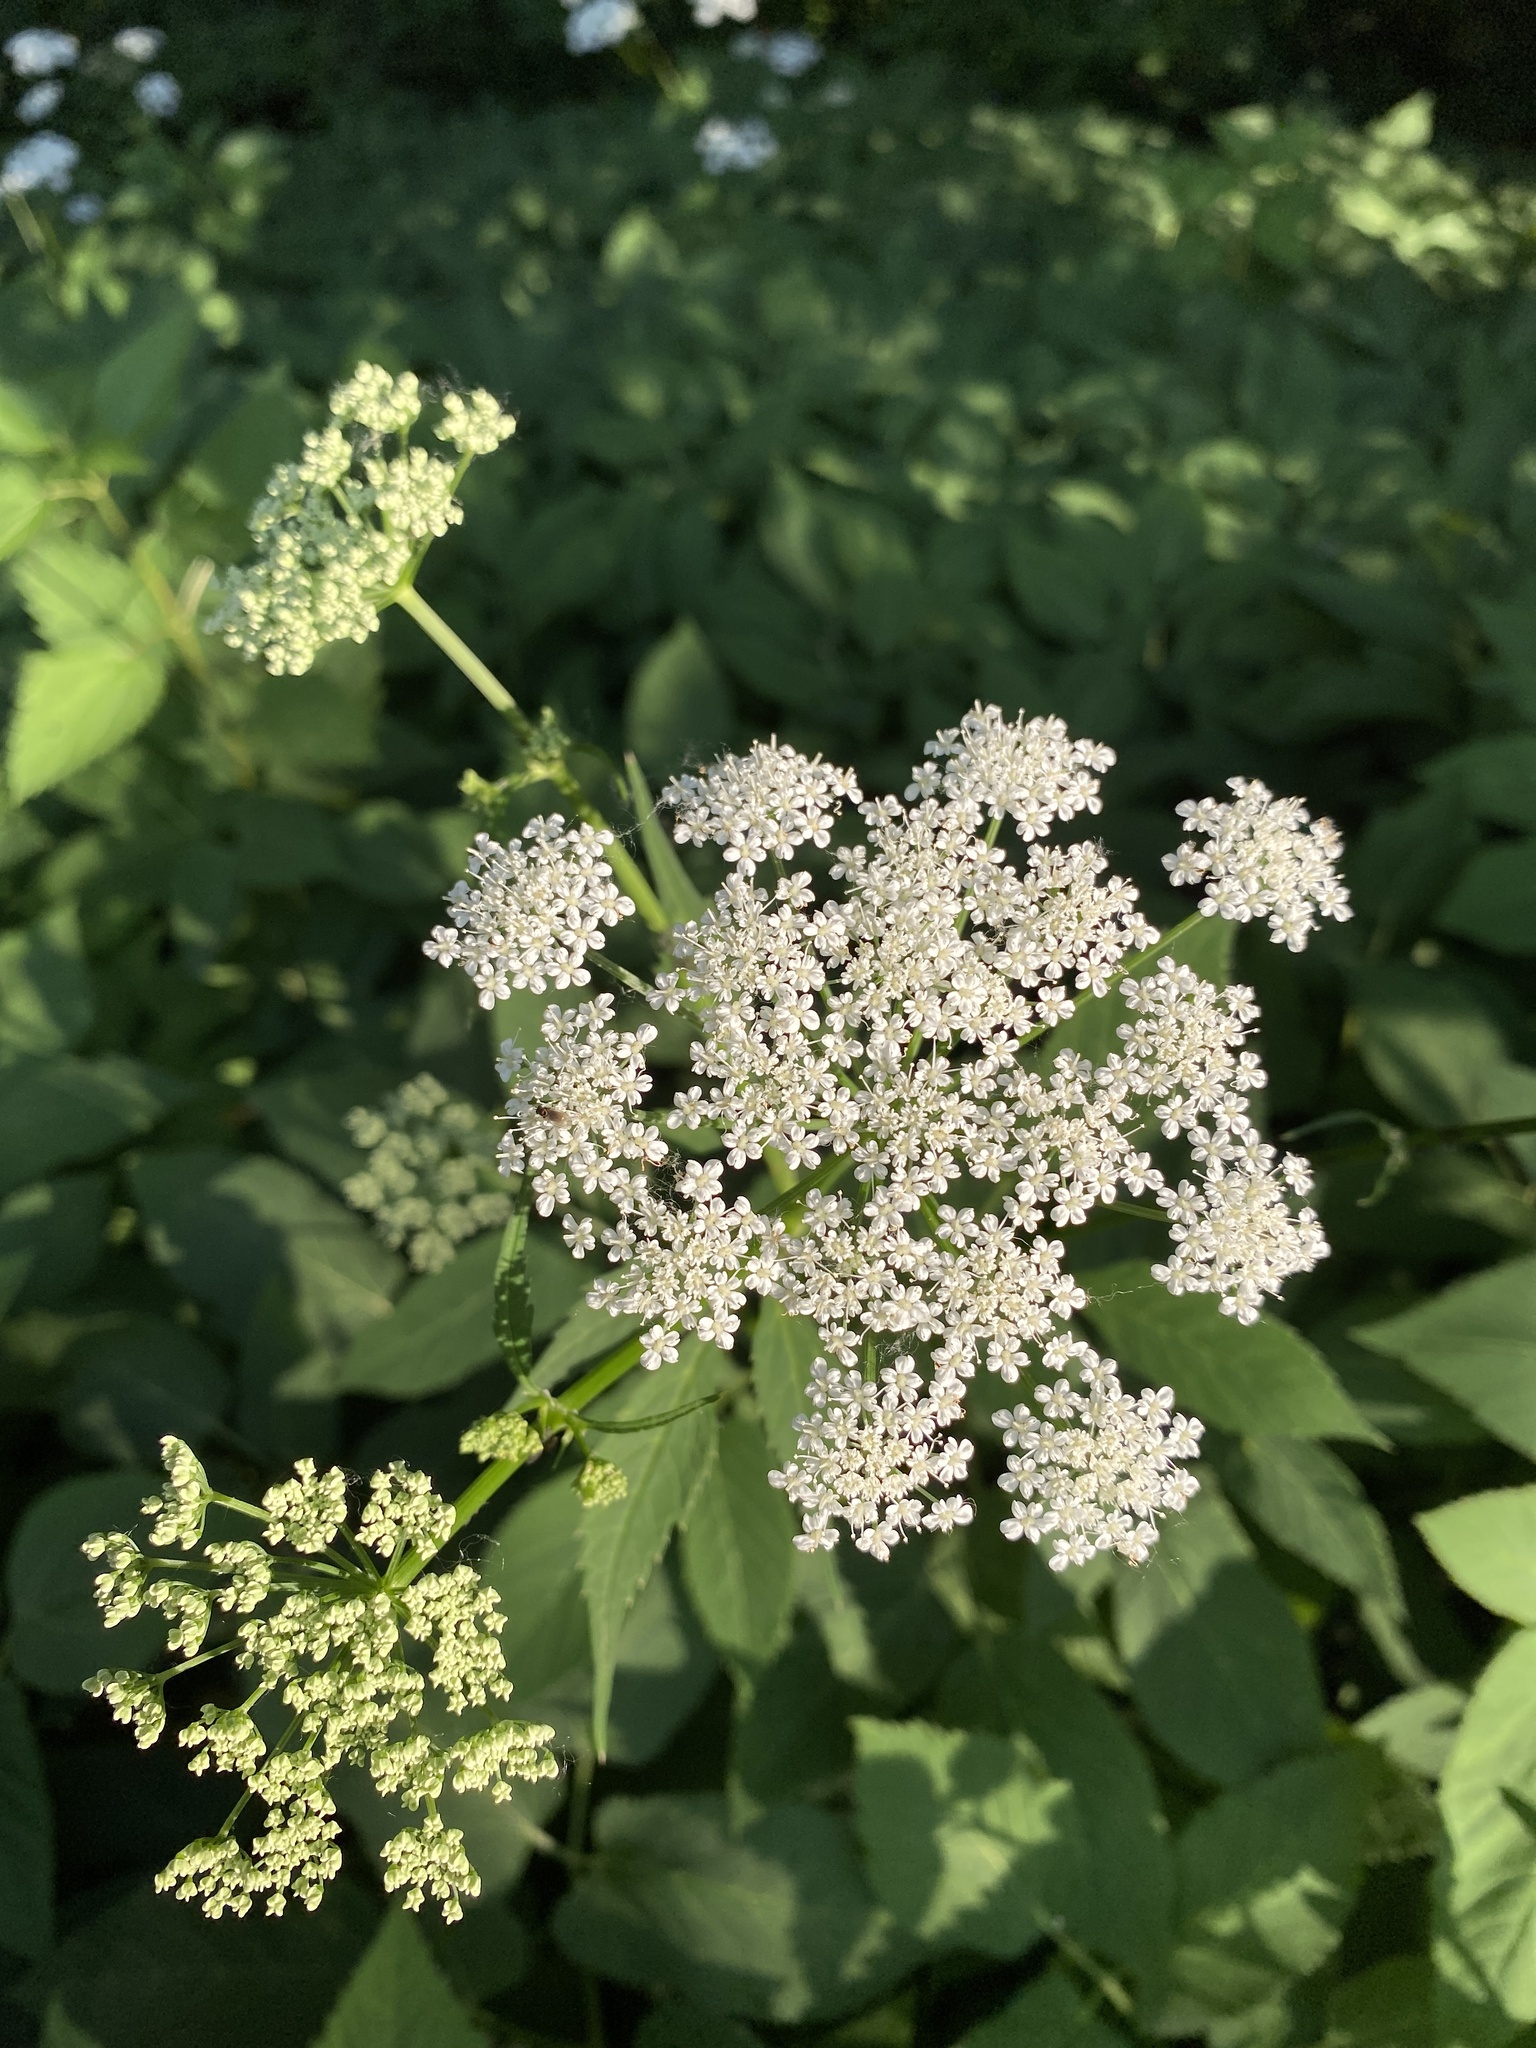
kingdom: Plantae
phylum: Tracheophyta
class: Magnoliopsida
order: Apiales
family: Apiaceae
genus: Aegopodium
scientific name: Aegopodium podagraria
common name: Ground-elder
